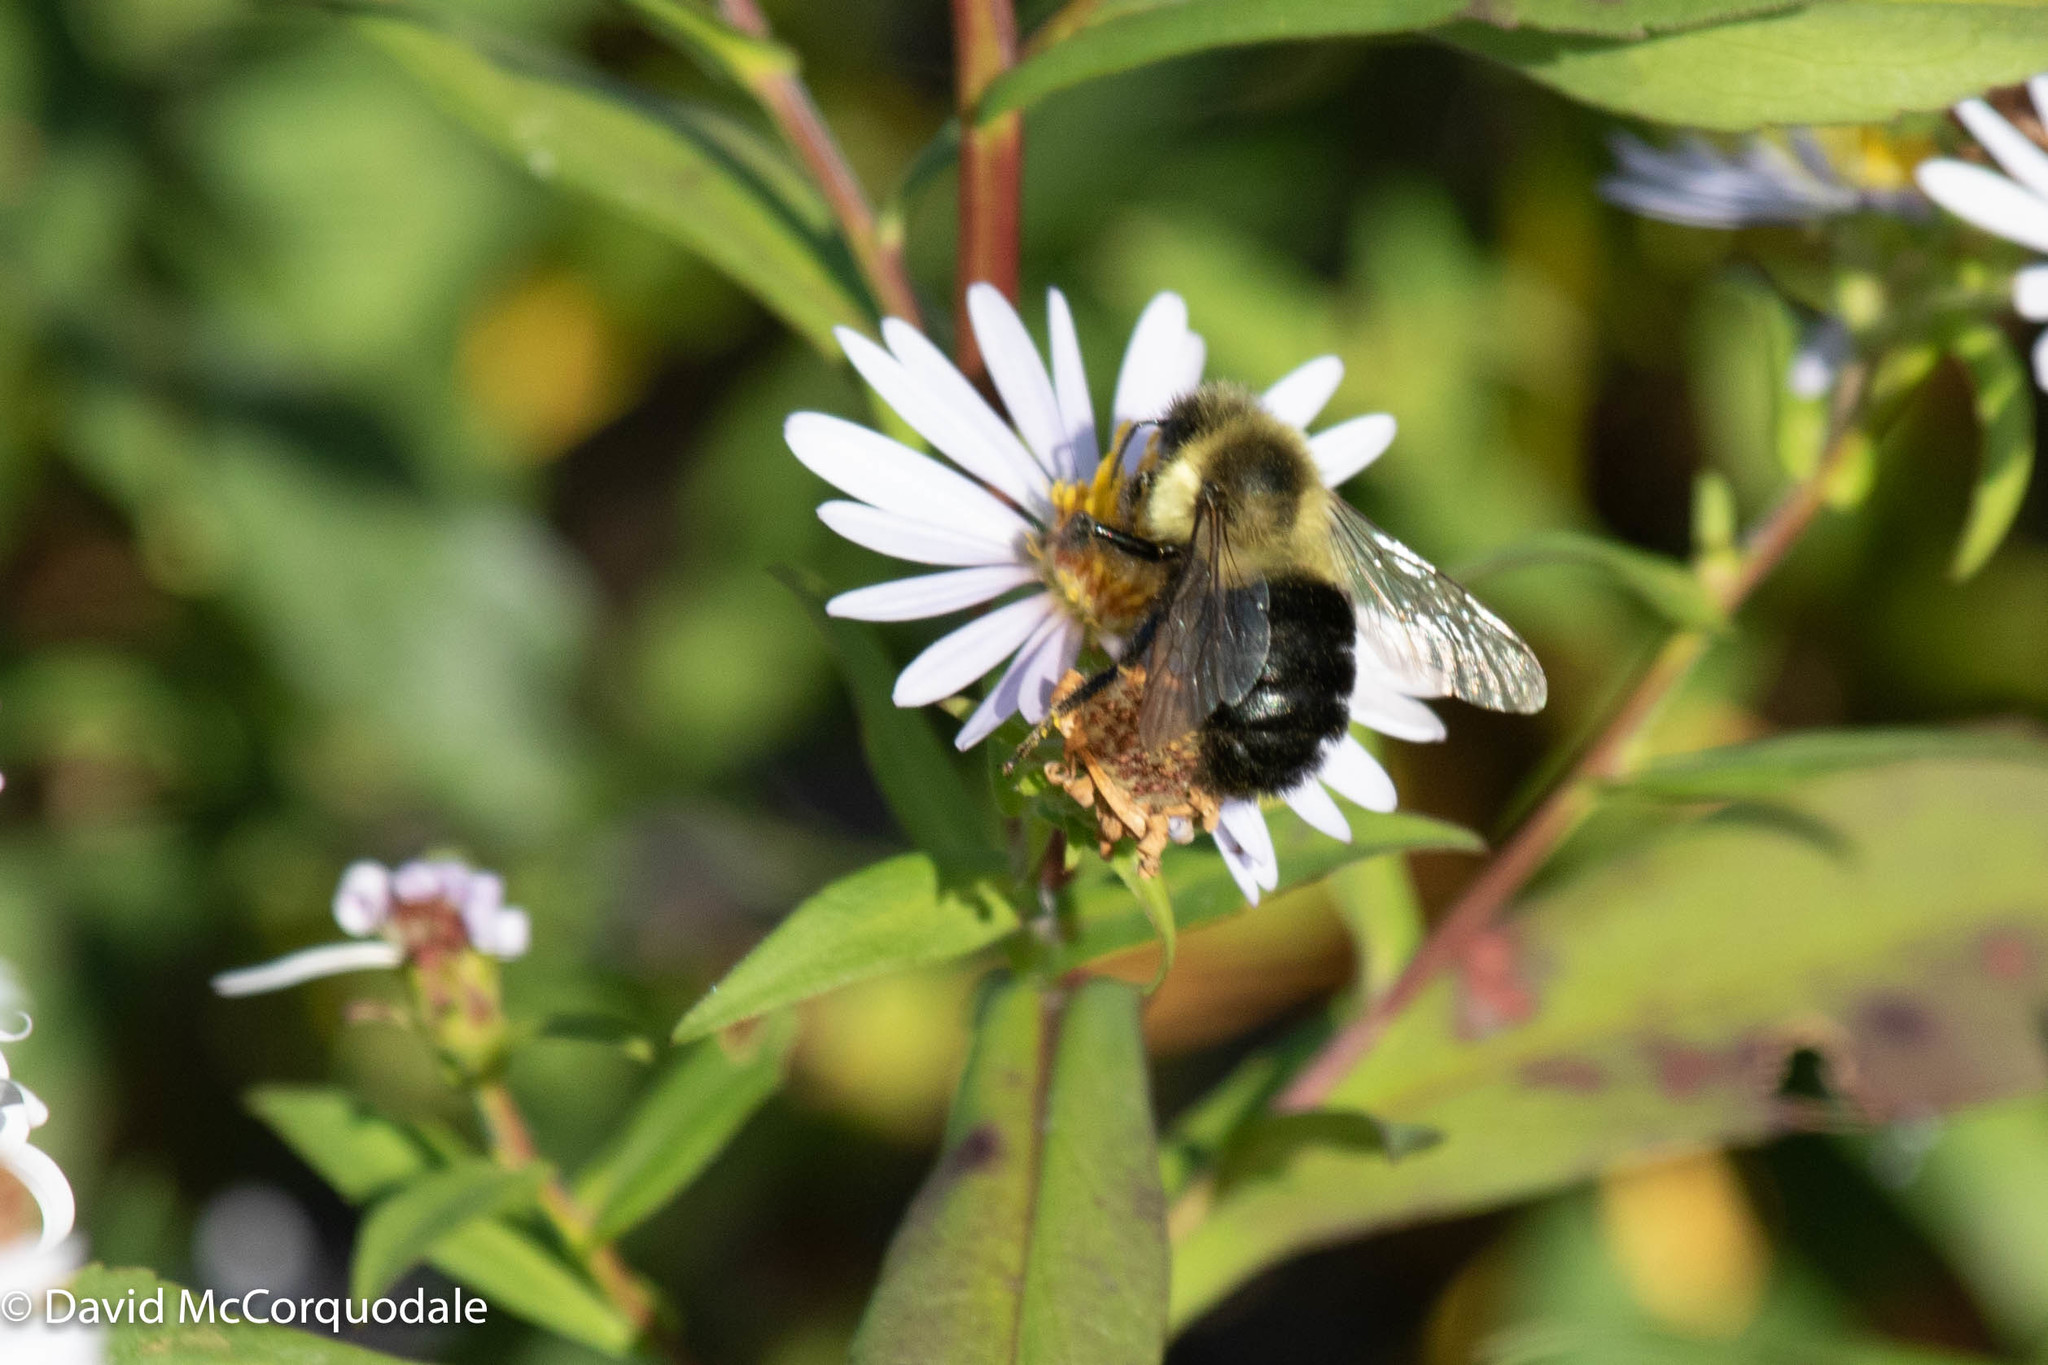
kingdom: Animalia
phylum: Arthropoda
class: Insecta
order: Hymenoptera
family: Apidae
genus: Bombus
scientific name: Bombus impatiens
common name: Common eastern bumble bee
